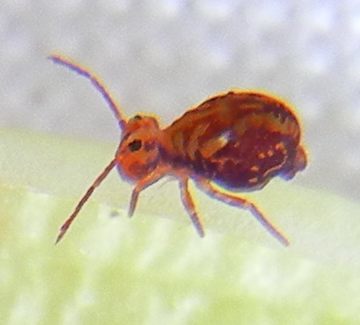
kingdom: Animalia
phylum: Arthropoda
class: Collembola
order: Symphypleona
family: Dicyrtomidae
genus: Dicyrtomina
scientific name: Dicyrtomina saundersi
